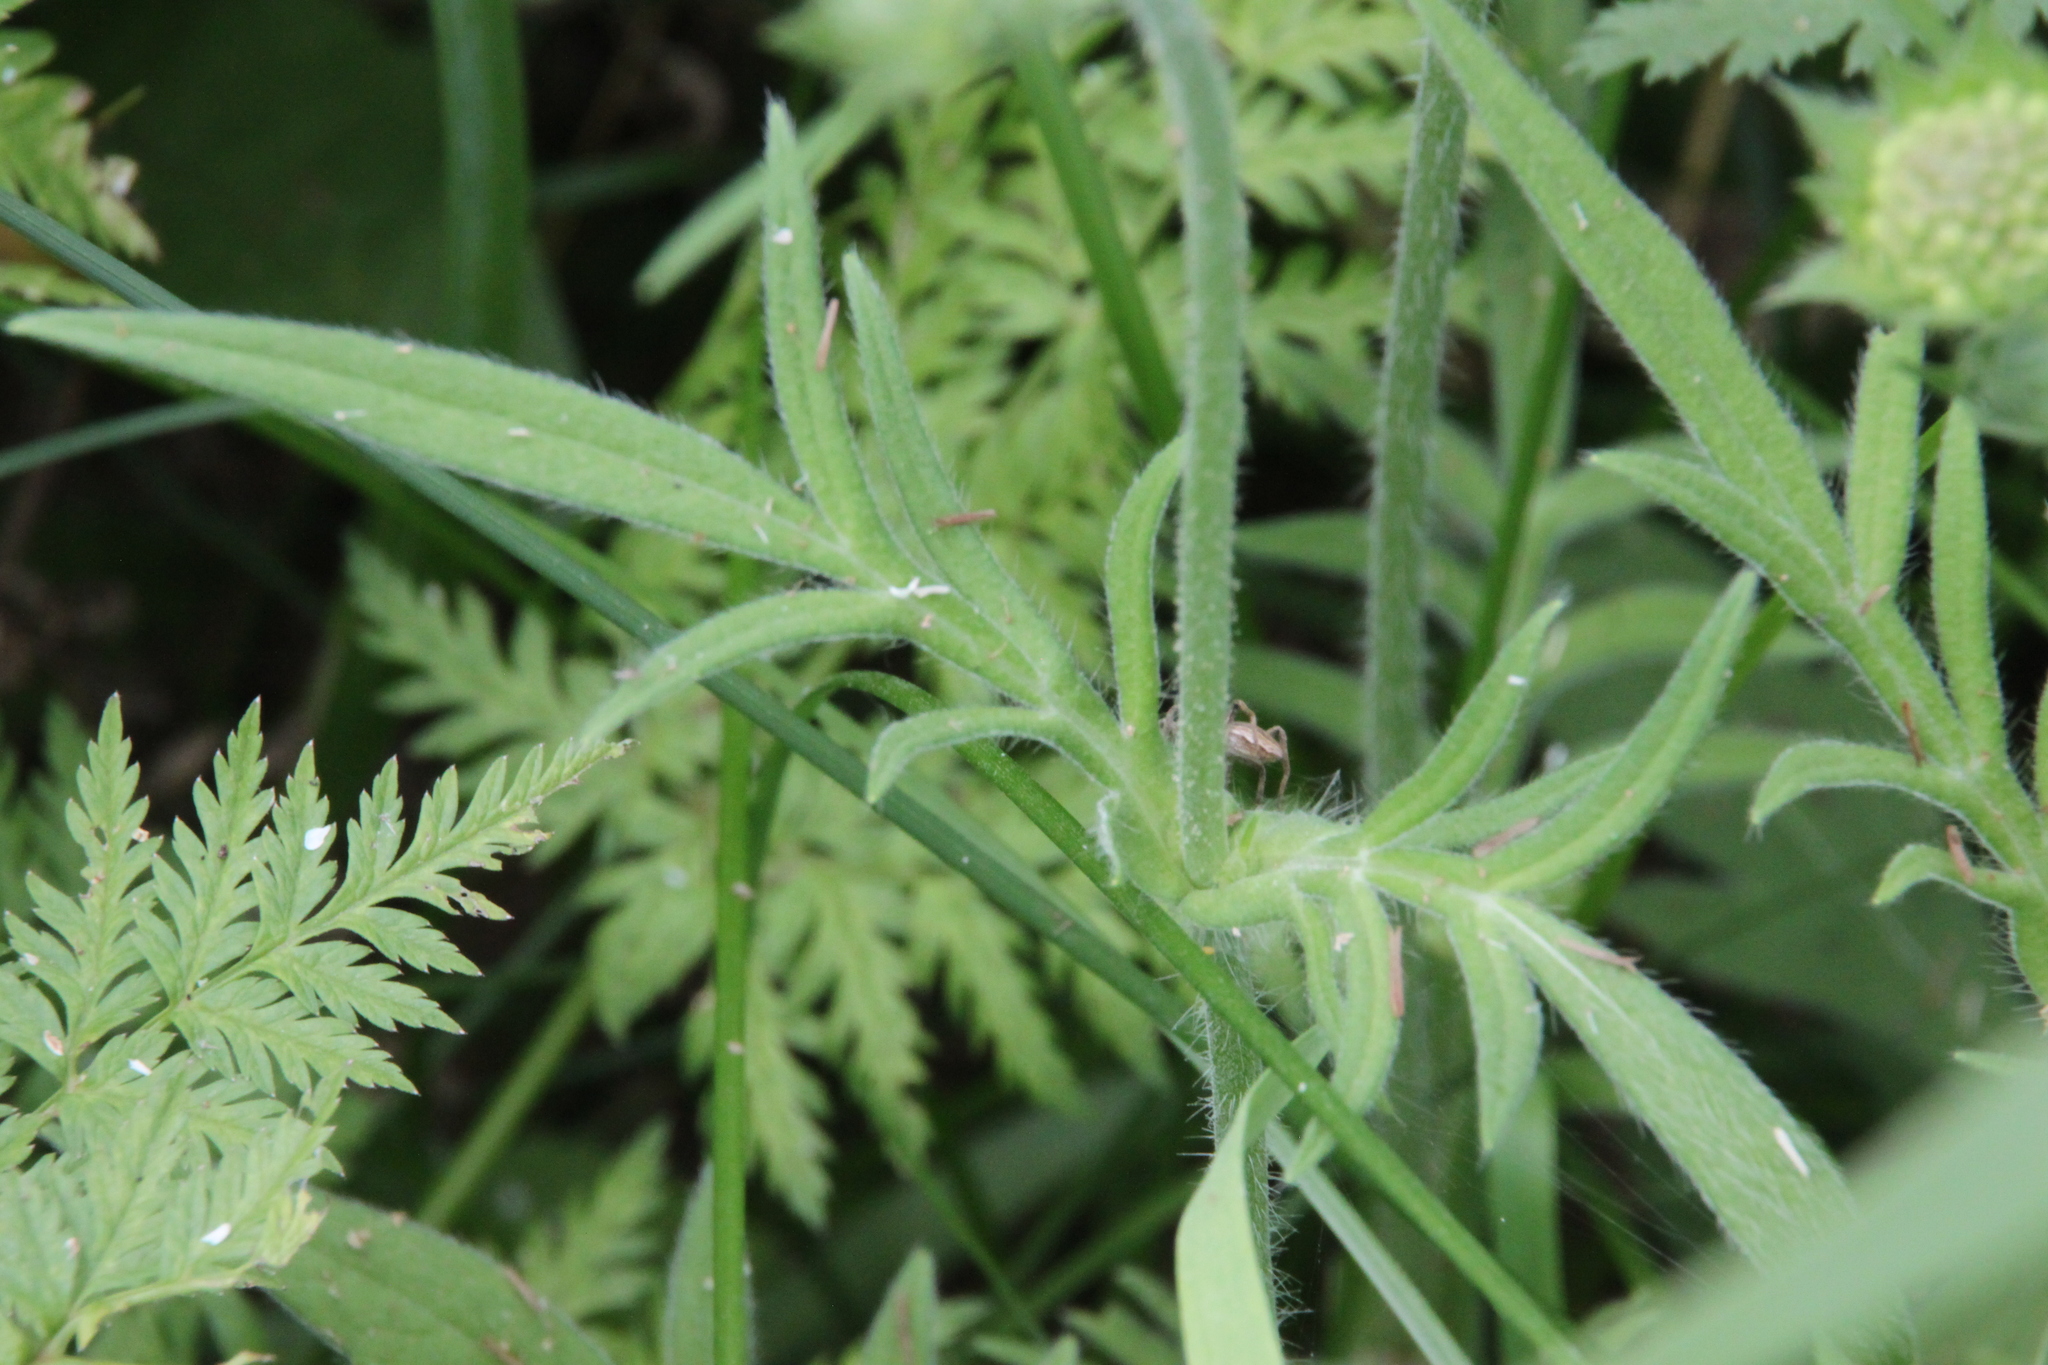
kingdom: Plantae
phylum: Tracheophyta
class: Magnoliopsida
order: Dipsacales
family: Caprifoliaceae
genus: Knautia
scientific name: Knautia arvensis
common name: Field scabiosa
